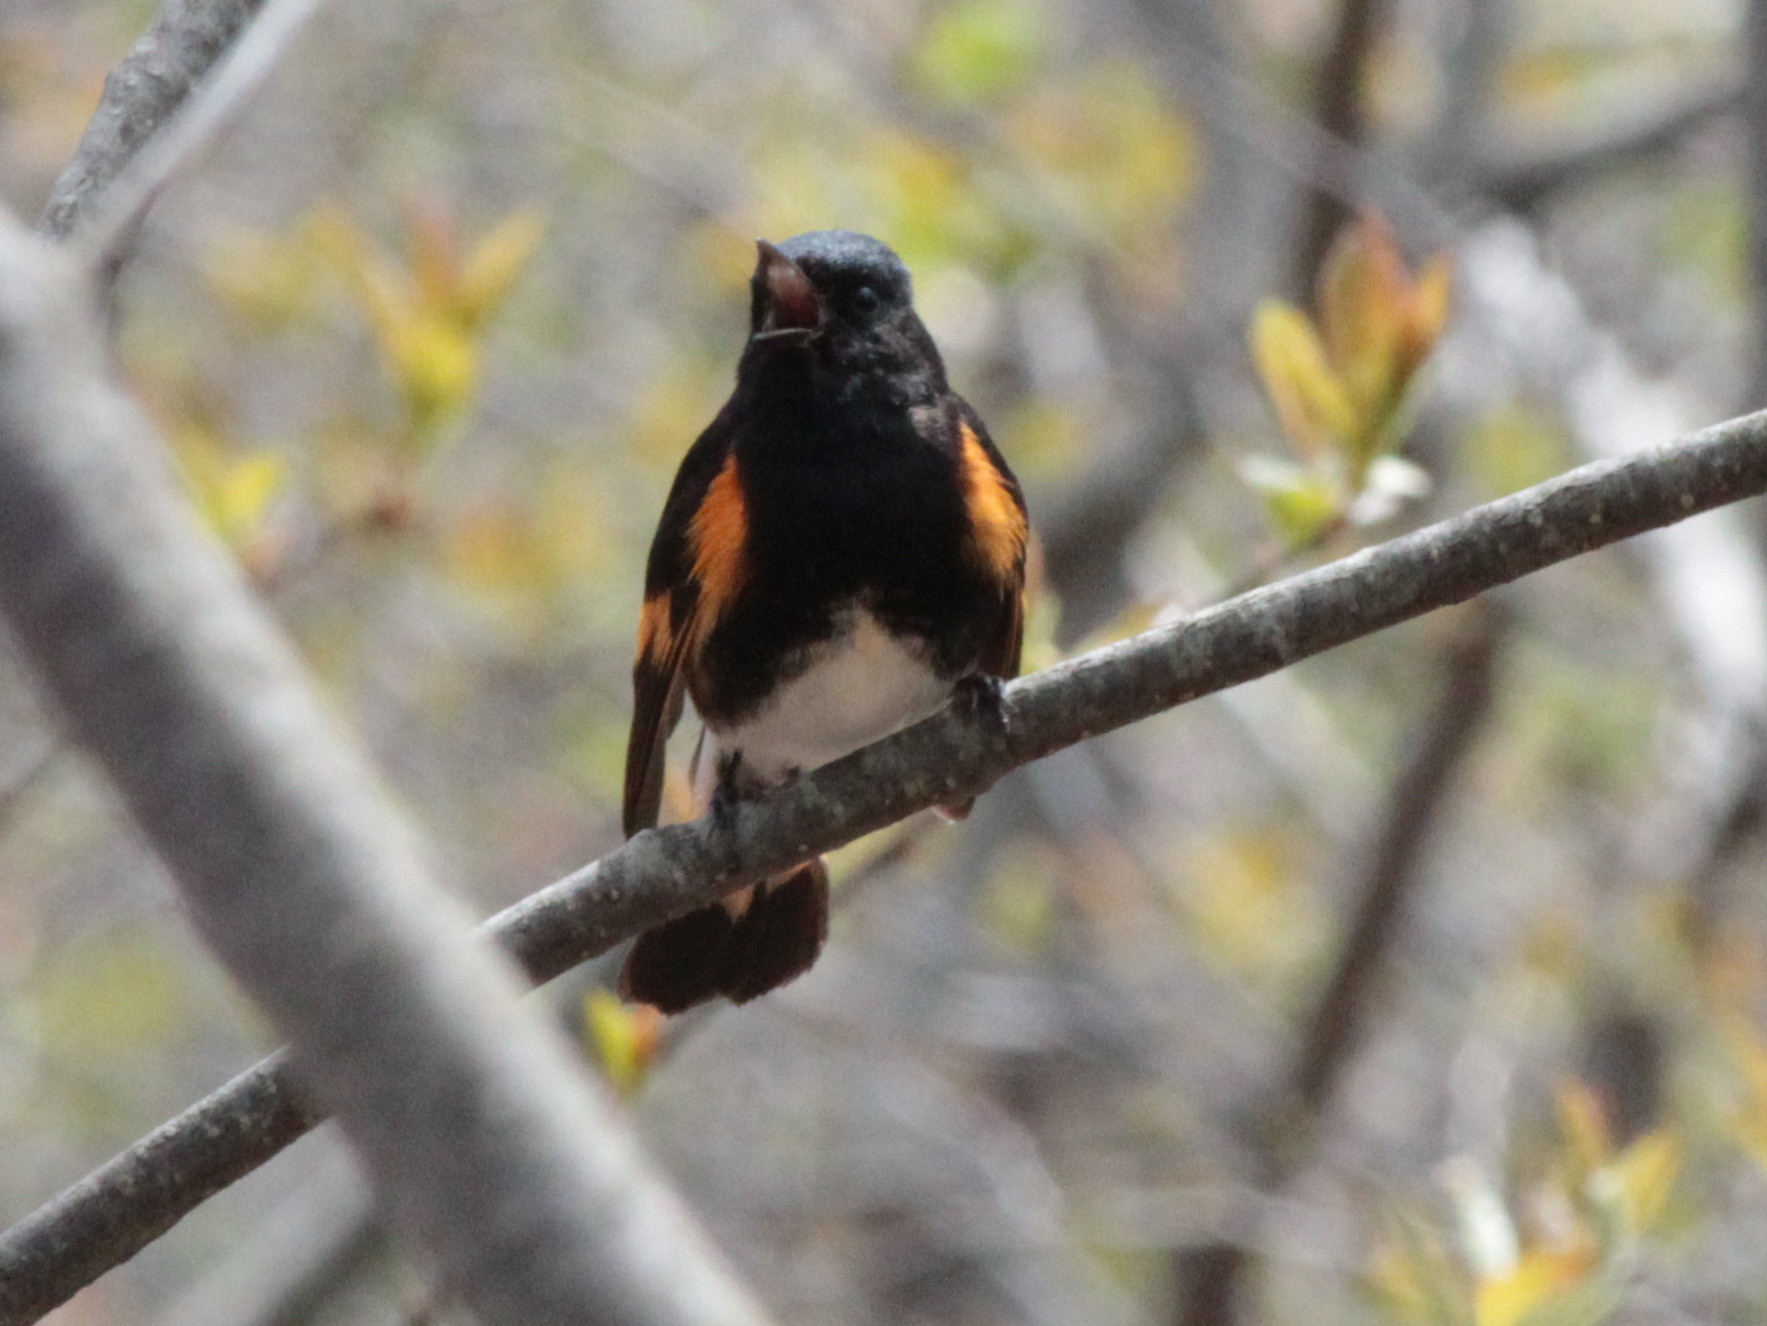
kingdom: Animalia
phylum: Chordata
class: Aves
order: Passeriformes
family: Parulidae
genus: Setophaga
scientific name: Setophaga ruticilla
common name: American redstart
